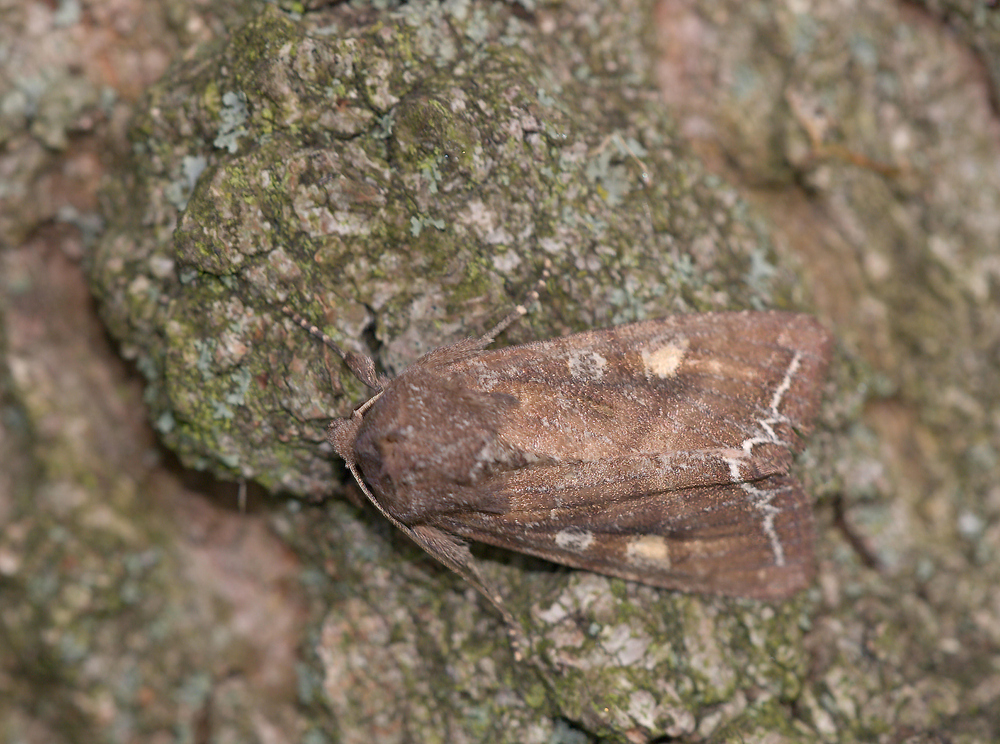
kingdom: Animalia
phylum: Arthropoda
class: Insecta
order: Lepidoptera
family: Noctuidae
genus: Lacanobia
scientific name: Lacanobia oleracea
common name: Bright-line brown-eye
